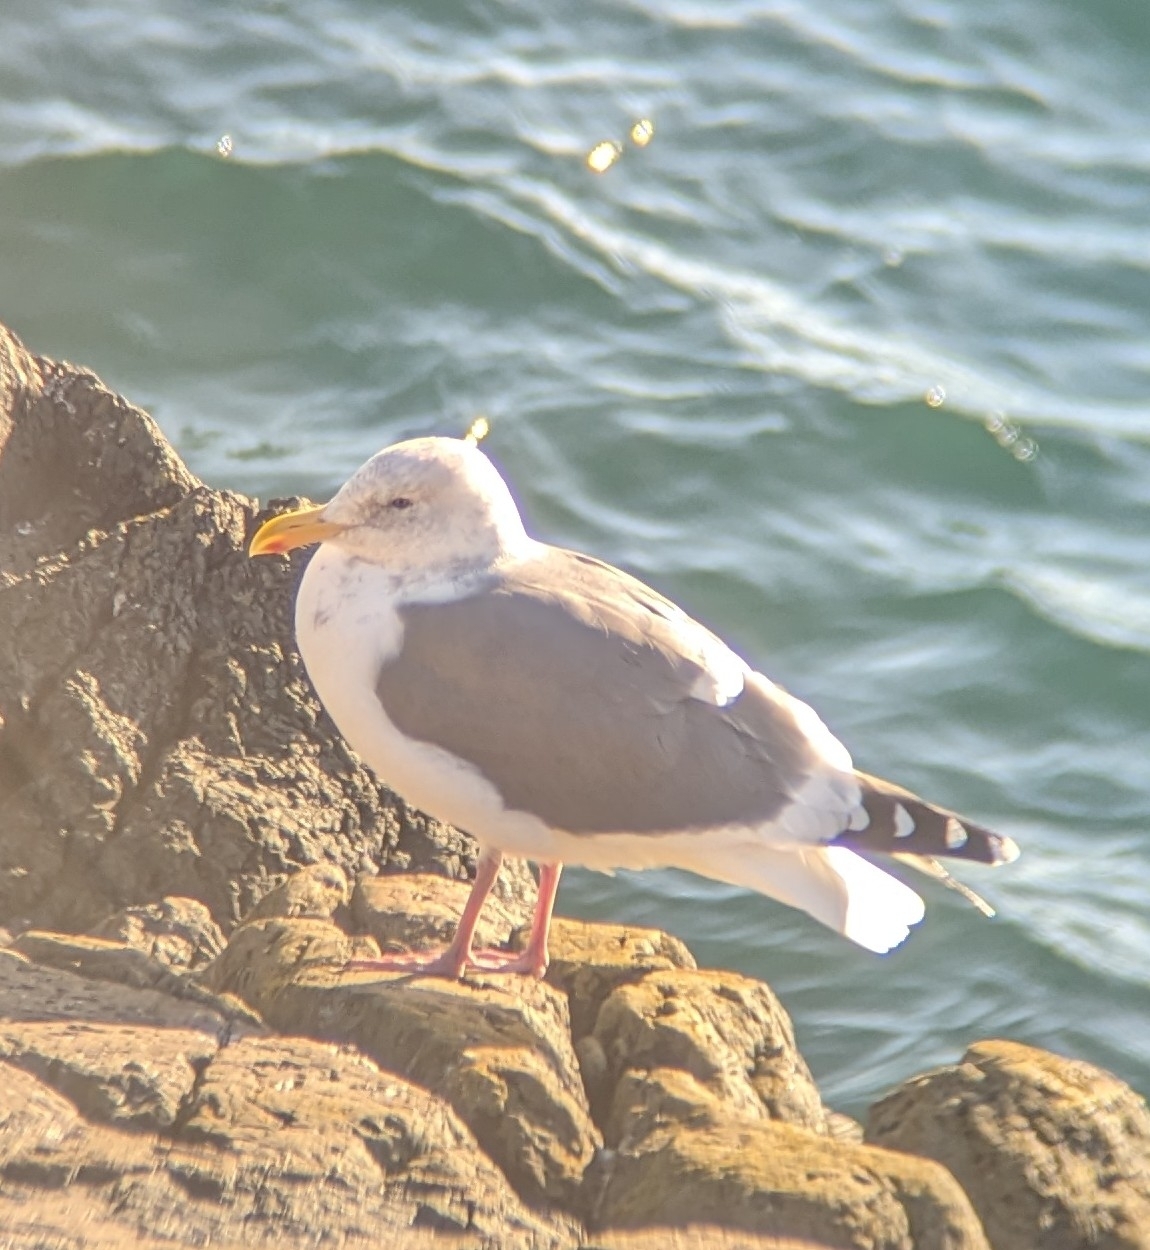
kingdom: Animalia
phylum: Chordata
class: Aves
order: Charadriiformes
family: Laridae
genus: Larus
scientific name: Larus
